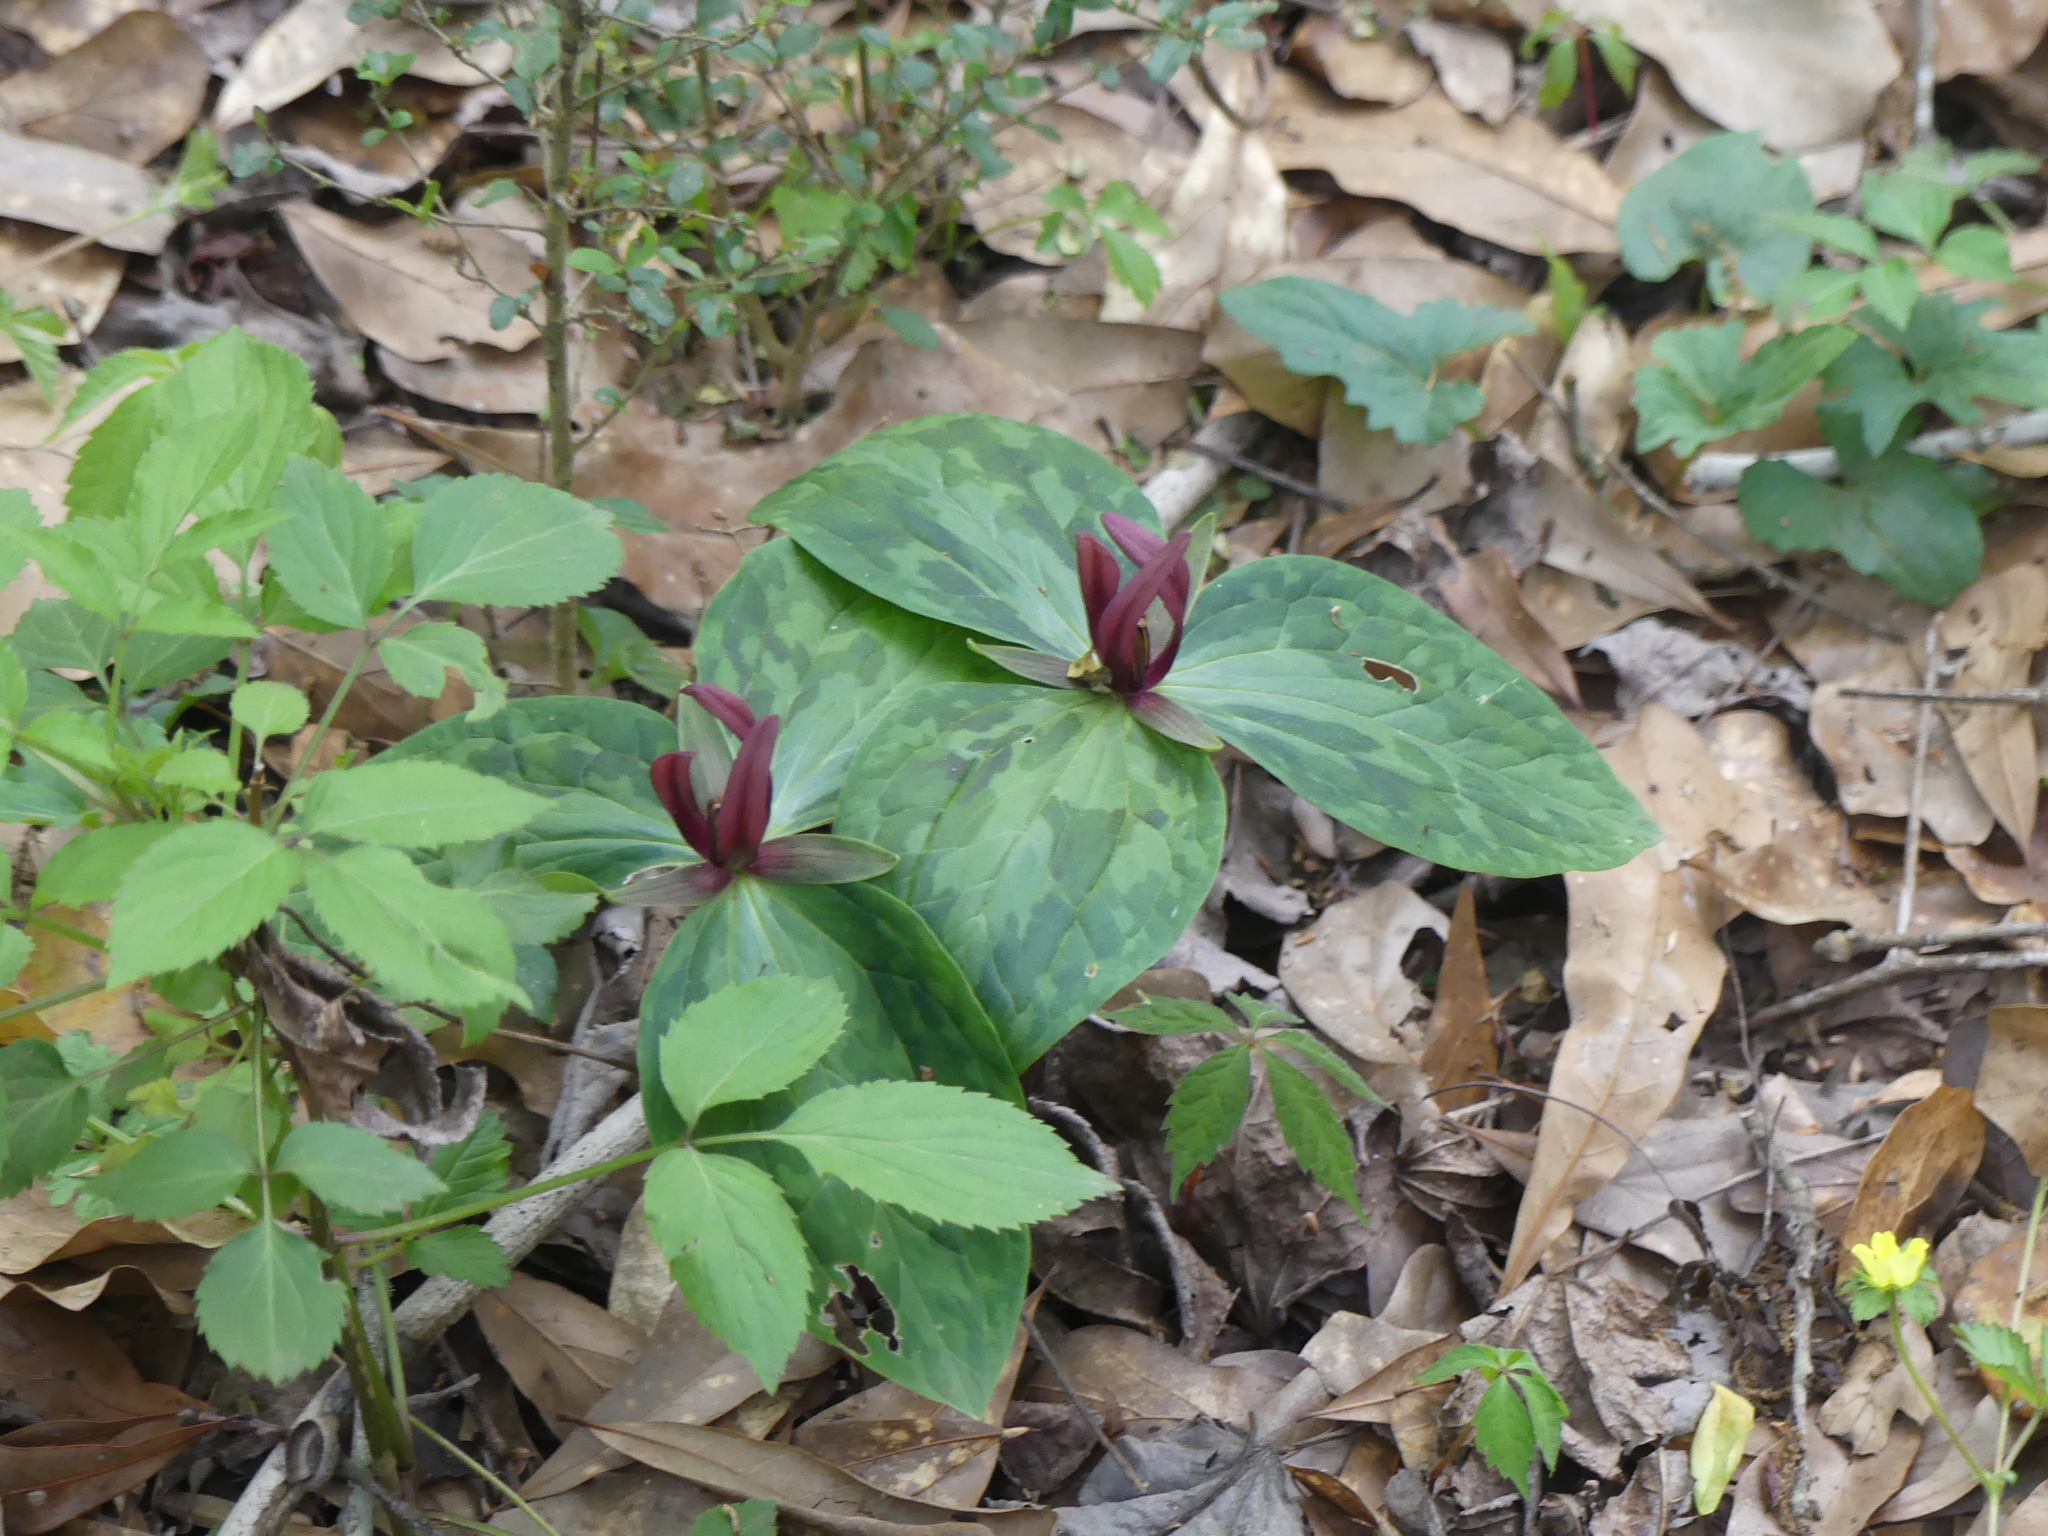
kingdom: Plantae
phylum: Tracheophyta
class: Liliopsida
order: Liliales
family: Melanthiaceae
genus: Trillium
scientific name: Trillium foetidissimum
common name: Mississippi river trillium
